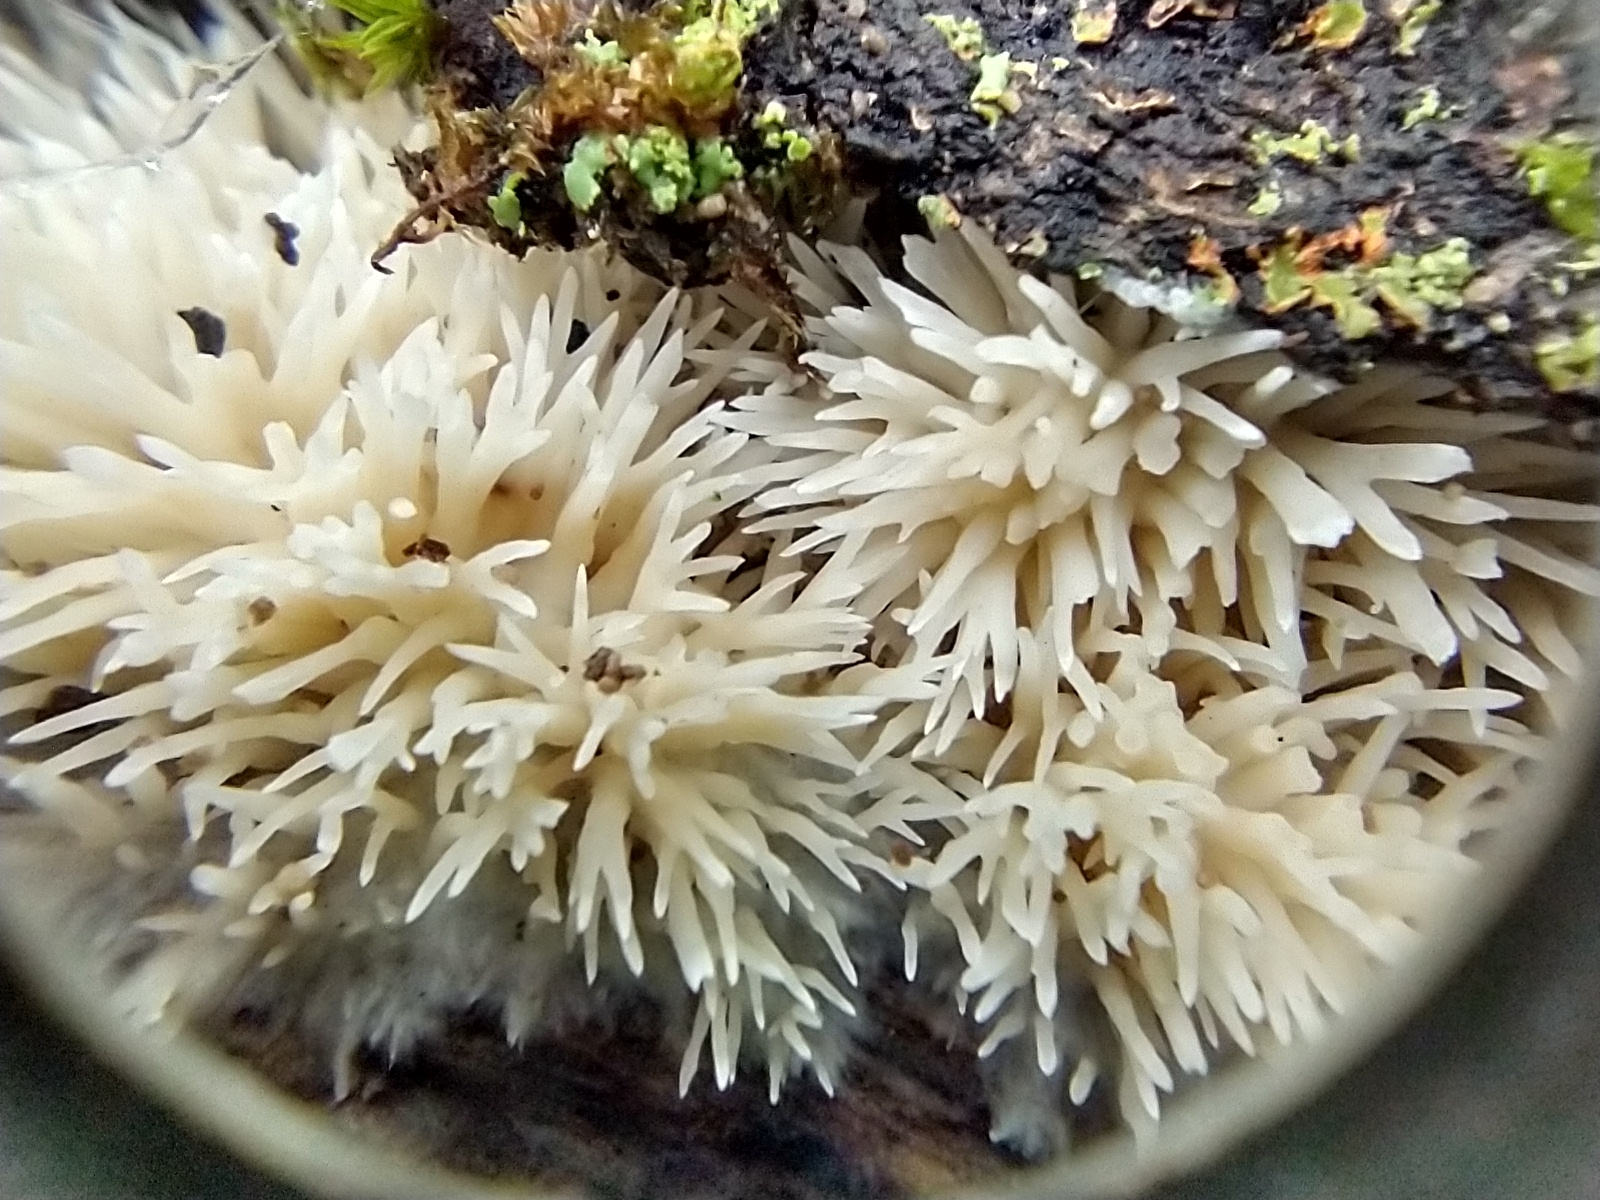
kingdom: Fungi
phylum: Basidiomycota
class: Agaricomycetes
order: Agaricales
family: Radulomycetaceae
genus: Radulomyces
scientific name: Radulomyces copelandii
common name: Asian beauty
